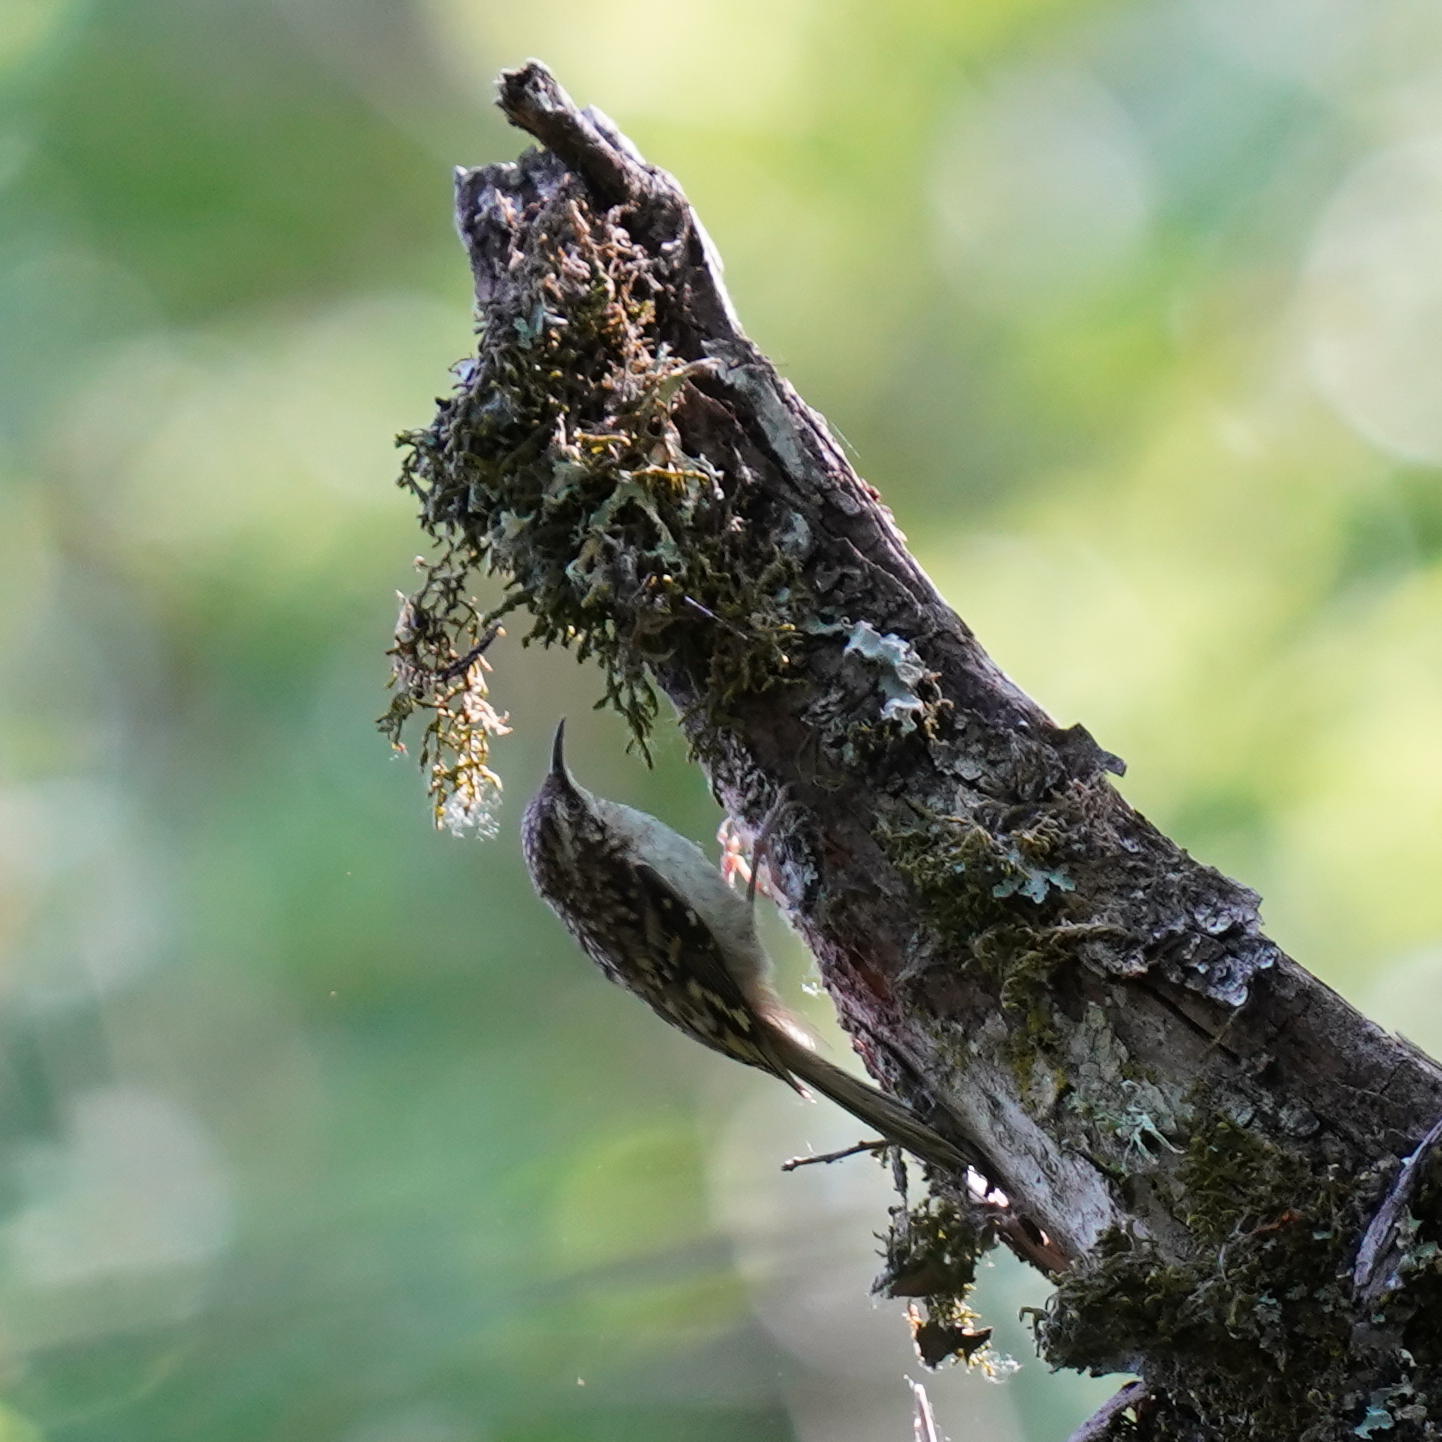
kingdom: Animalia
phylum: Chordata
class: Aves
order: Passeriformes
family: Certhiidae
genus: Certhia
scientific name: Certhia americana
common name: Brown creeper
